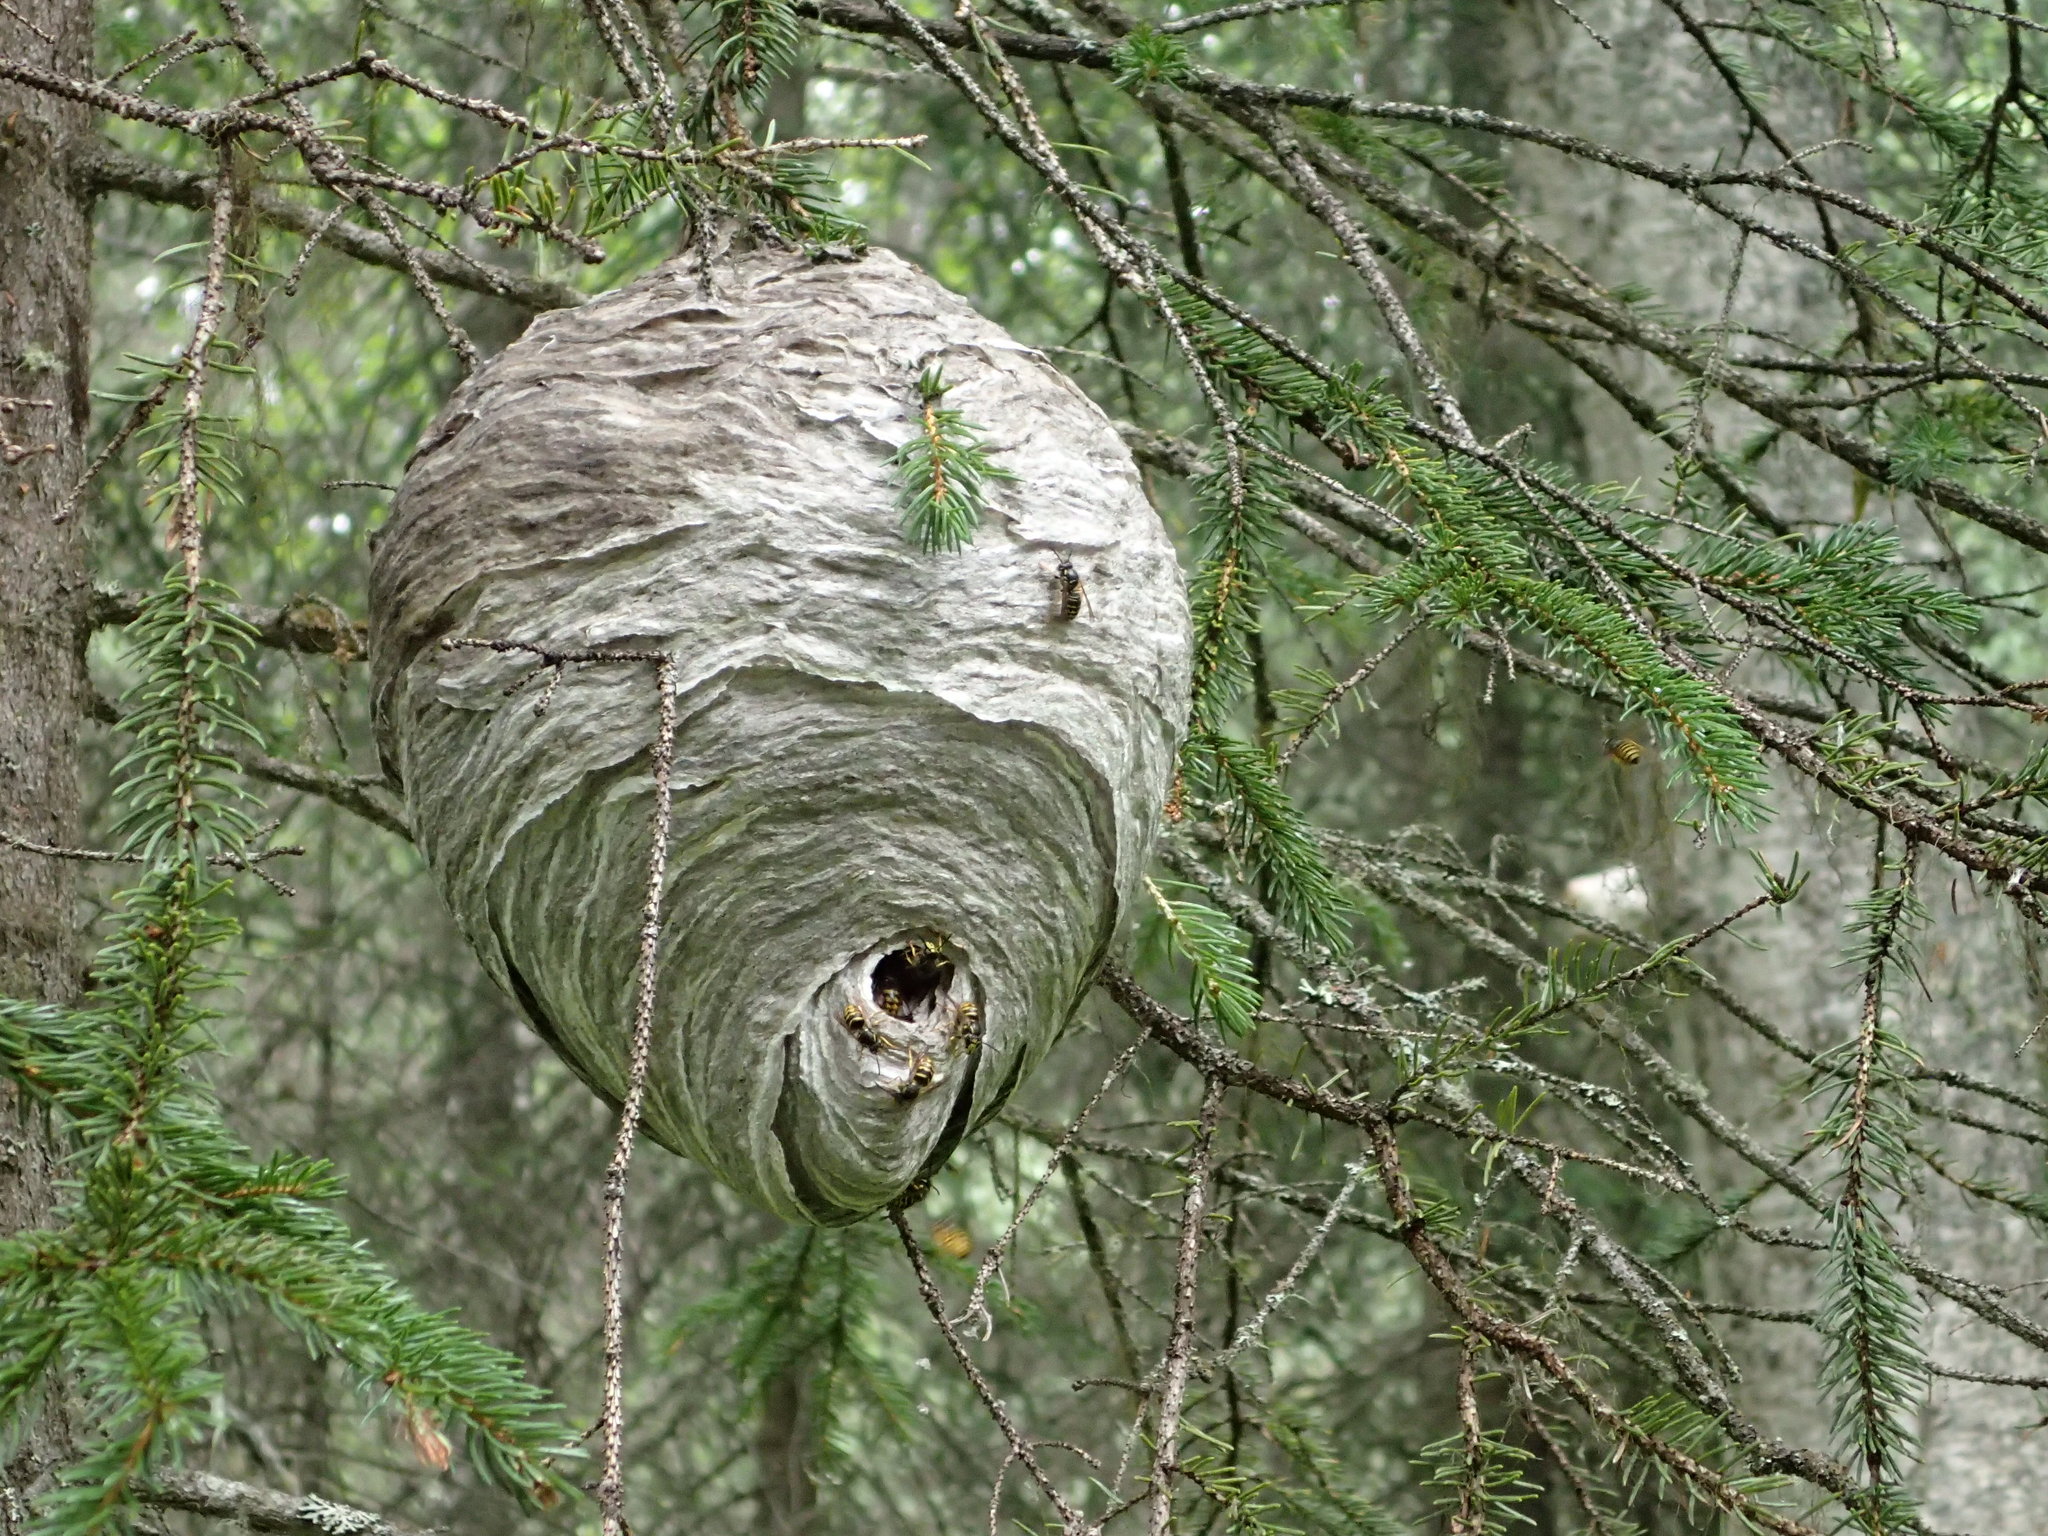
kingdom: Animalia
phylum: Arthropoda
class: Insecta
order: Hymenoptera
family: Vespidae
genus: Dolichovespula
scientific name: Dolichovespula arenaria
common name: Aerial yellowjacket
